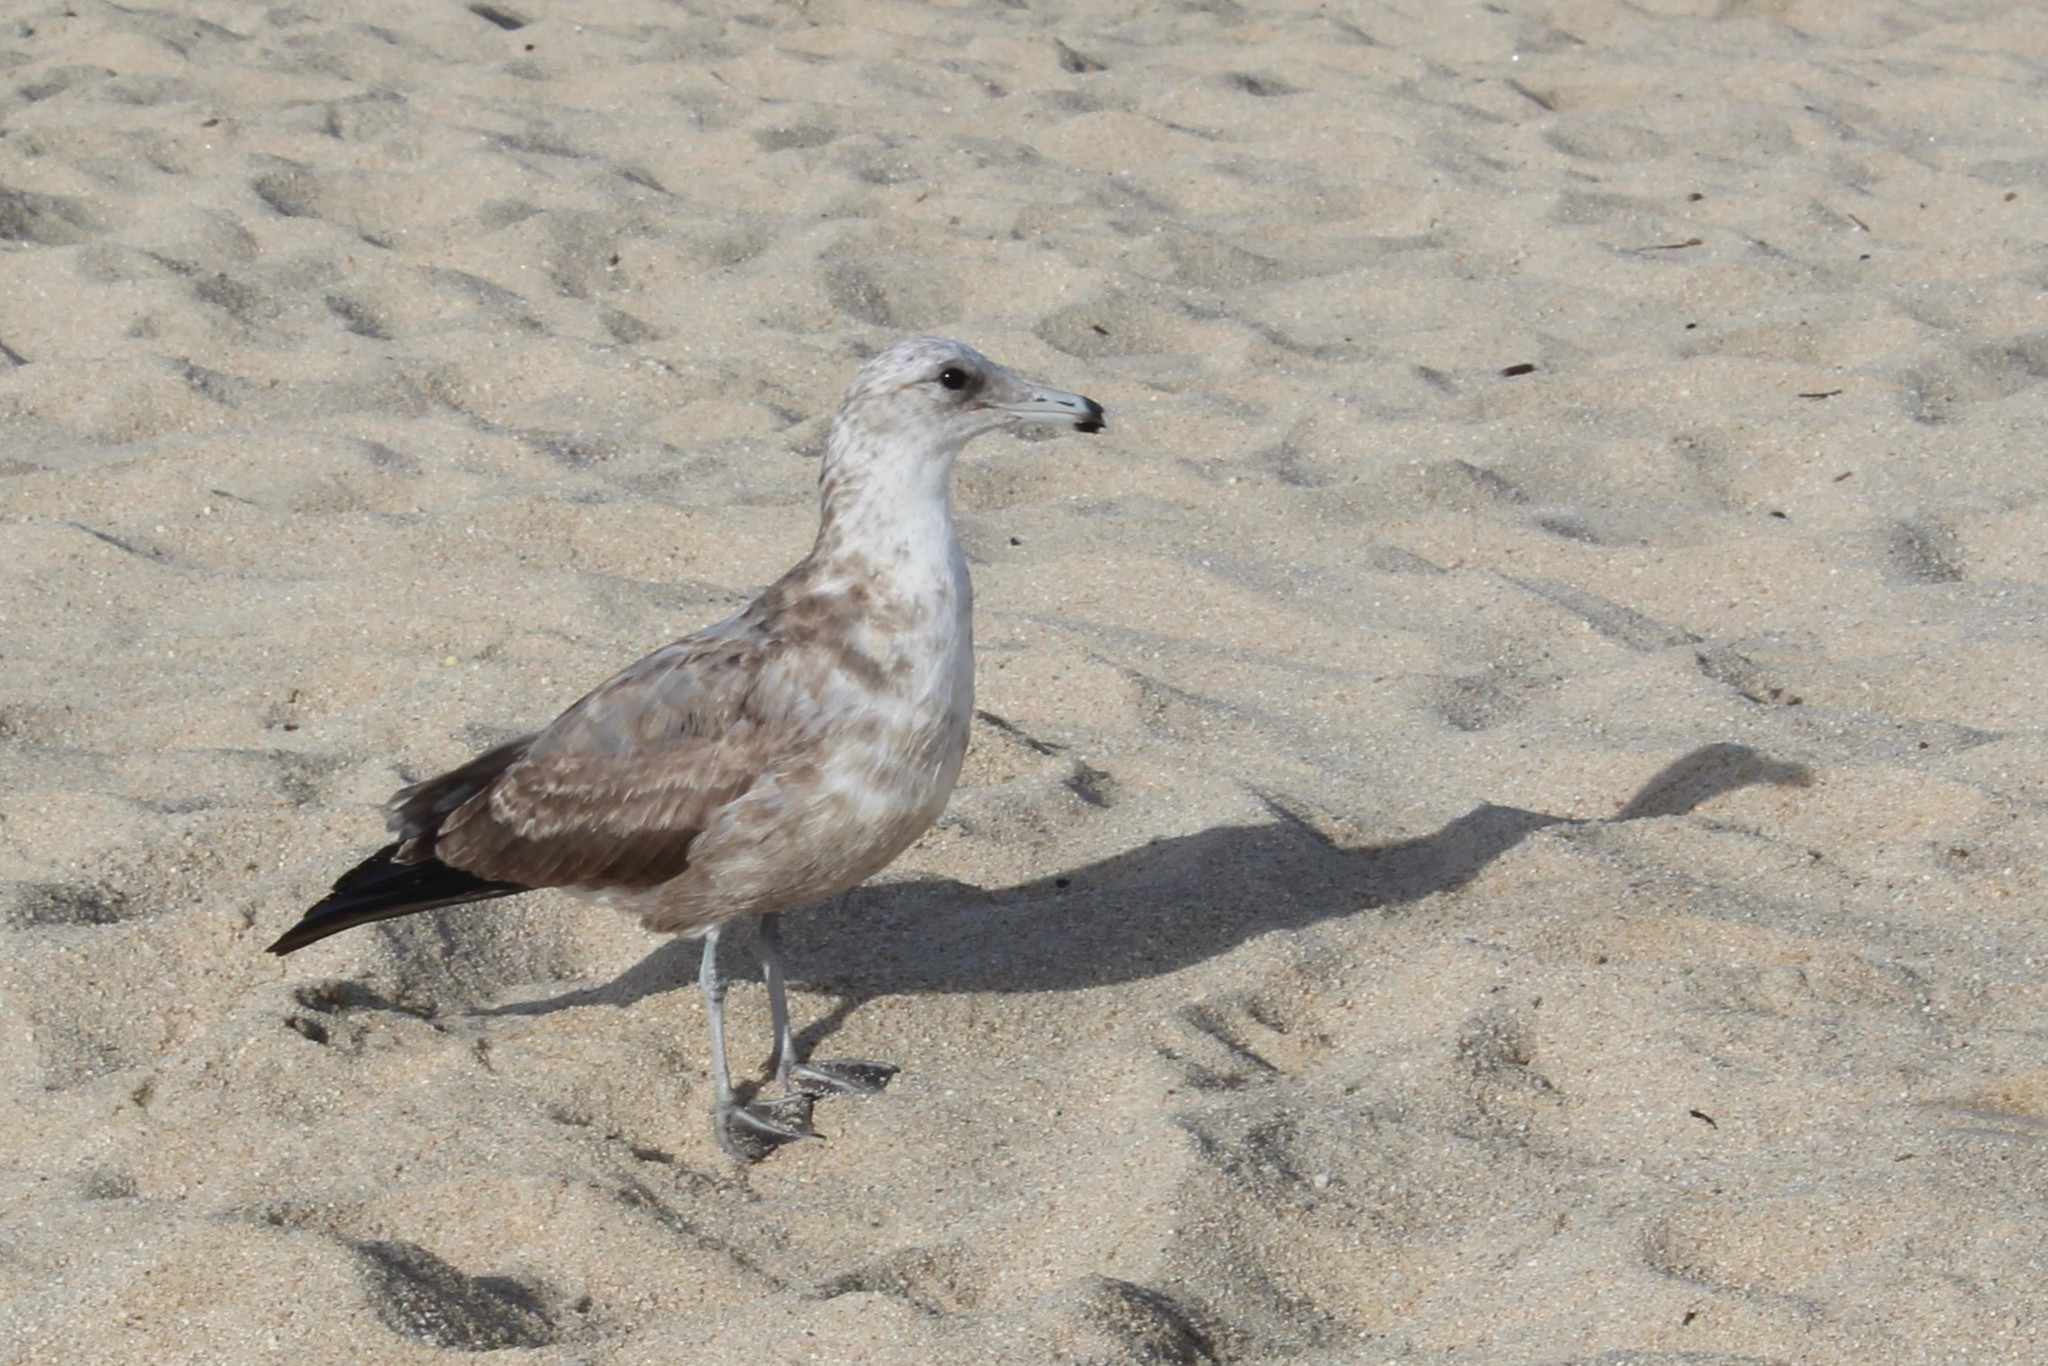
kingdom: Animalia
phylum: Chordata
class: Aves
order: Charadriiformes
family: Laridae
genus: Larus
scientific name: Larus californicus
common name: California gull
